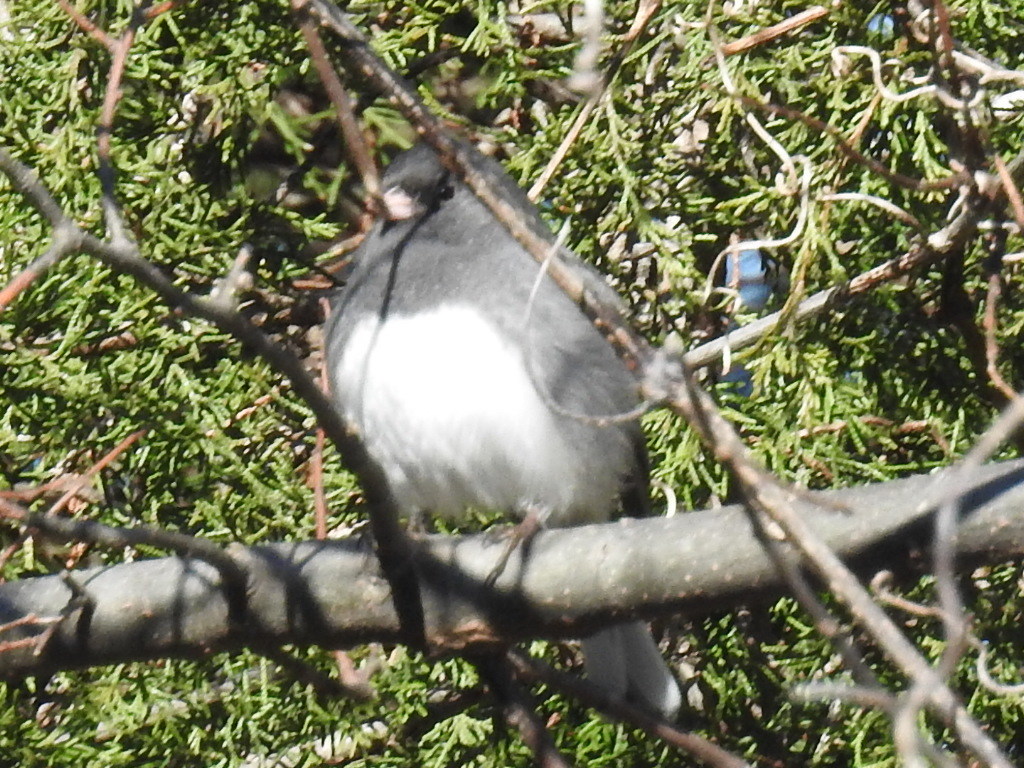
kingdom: Animalia
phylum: Chordata
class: Aves
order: Passeriformes
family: Passerellidae
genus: Junco
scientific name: Junco hyemalis
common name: Dark-eyed junco
